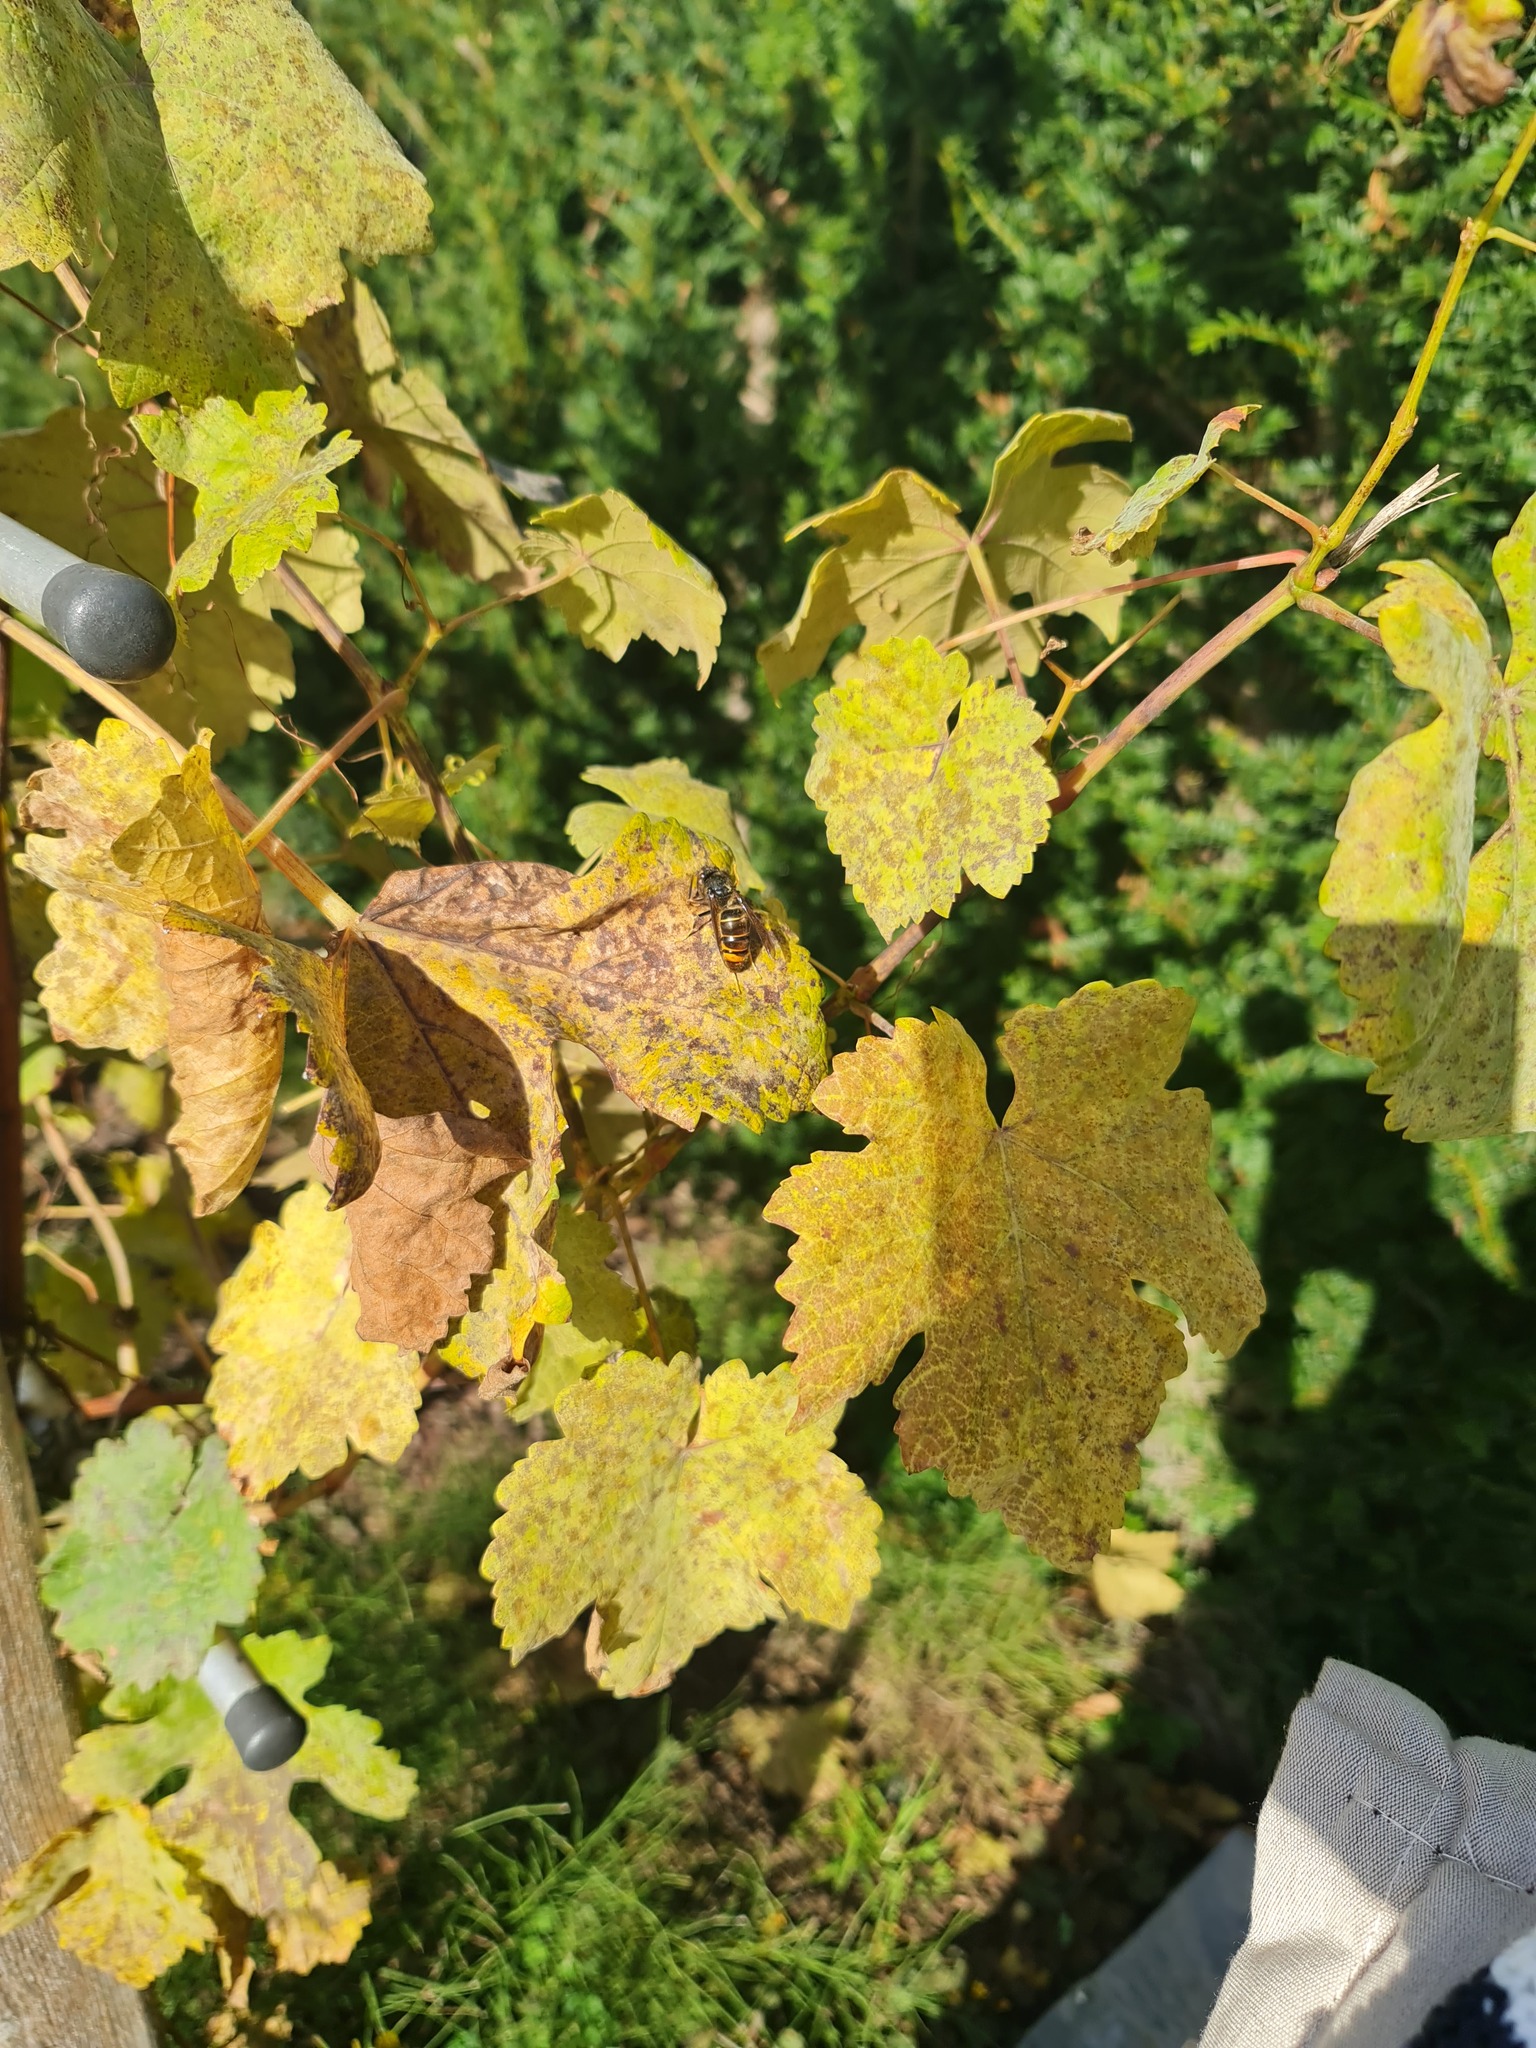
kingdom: Animalia
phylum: Arthropoda
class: Insecta
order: Hymenoptera
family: Vespidae
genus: Vespa
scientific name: Vespa velutina
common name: Asian hornet
